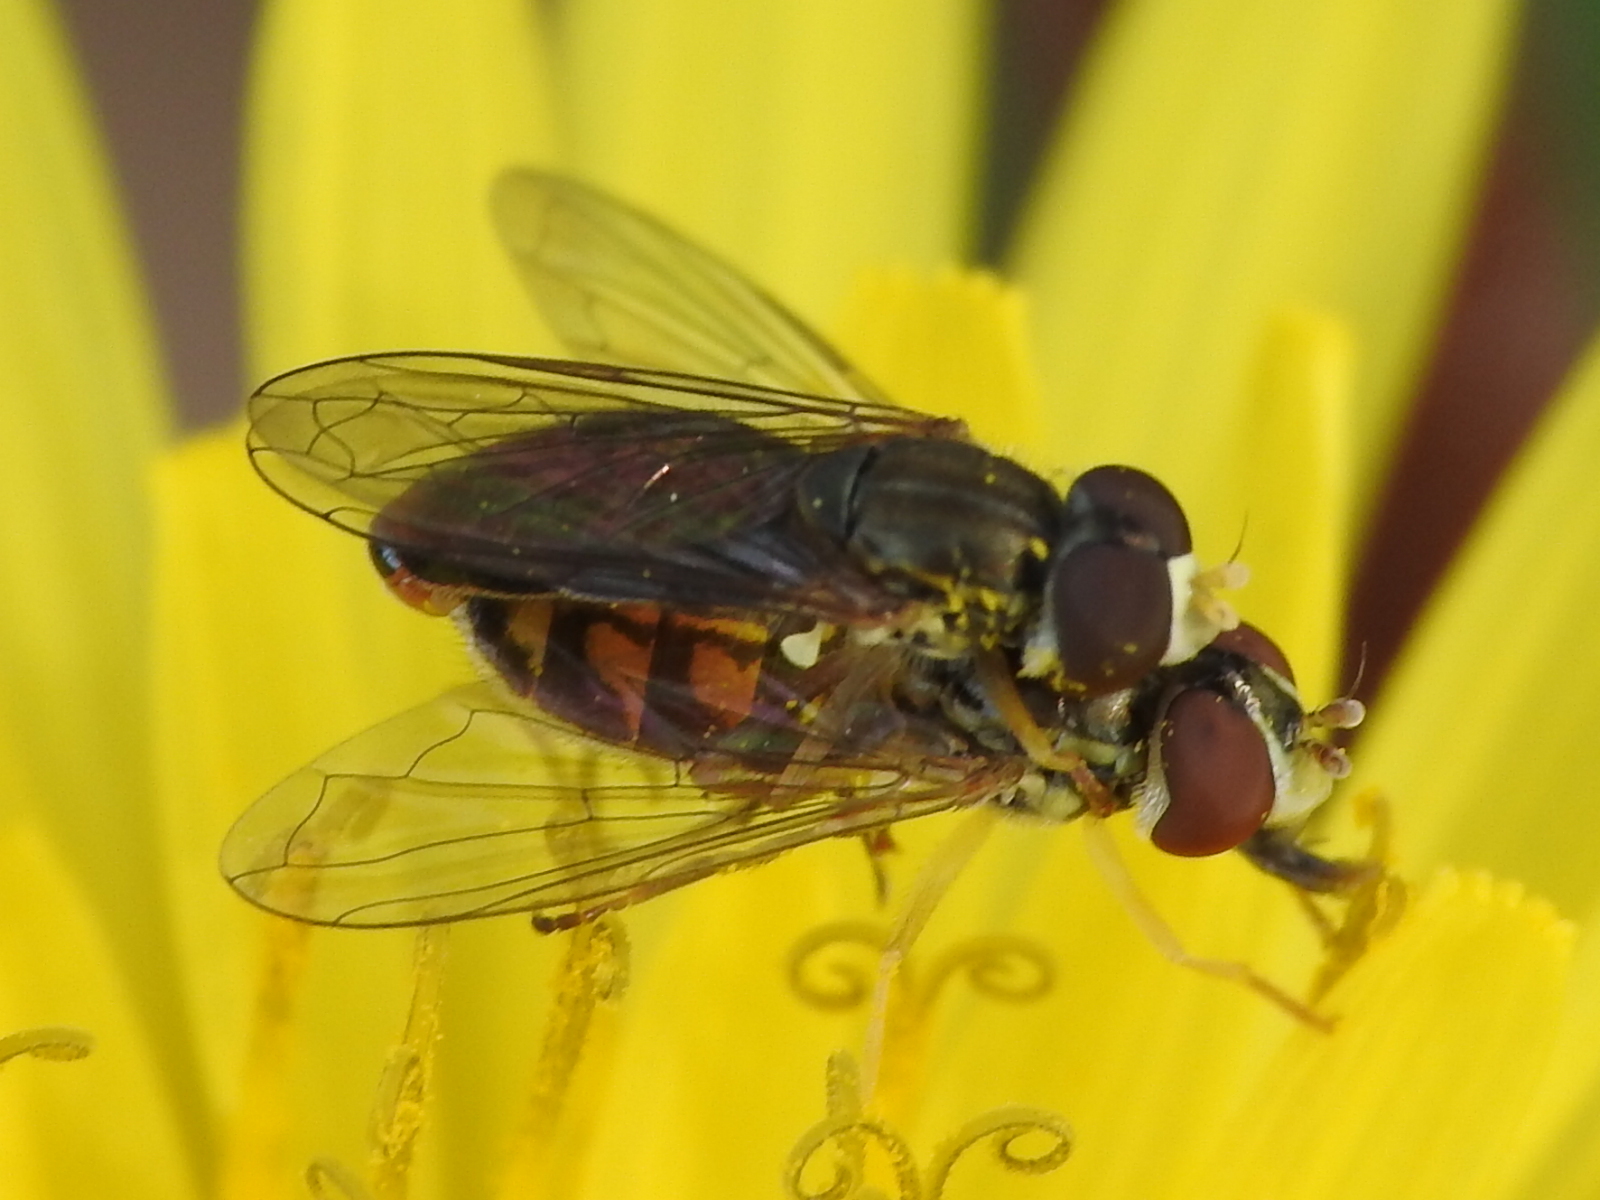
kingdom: Animalia
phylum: Arthropoda
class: Insecta
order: Diptera
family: Syrphidae
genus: Toxomerus
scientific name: Toxomerus marginatus
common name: Syrphid fly
